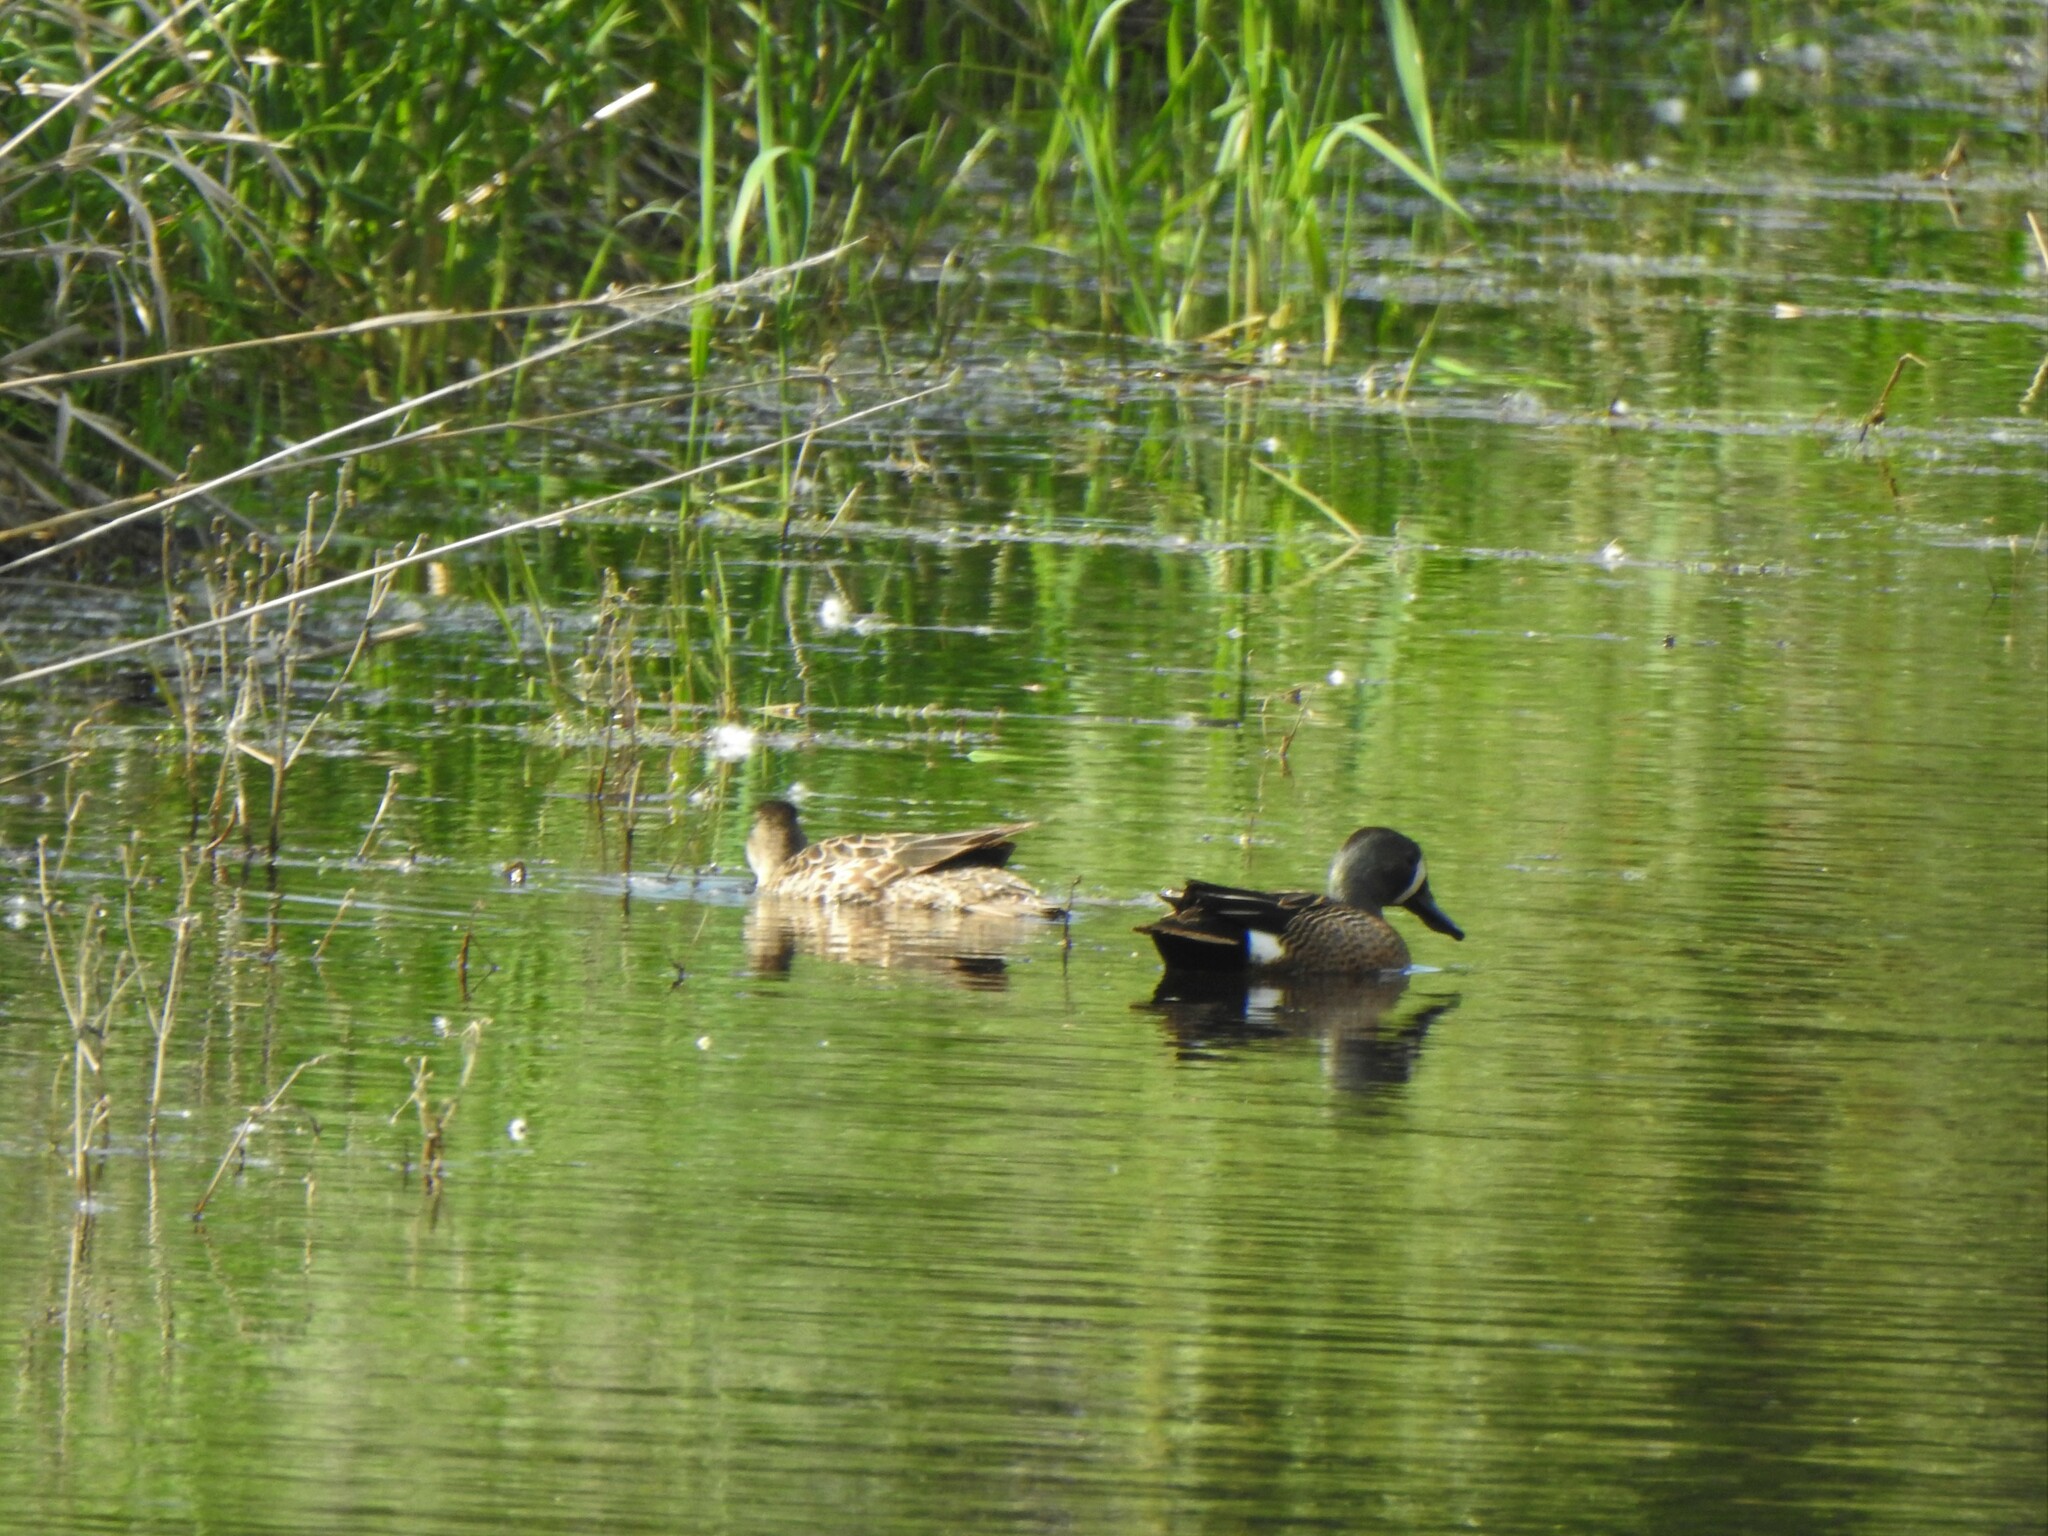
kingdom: Animalia
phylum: Chordata
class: Aves
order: Anseriformes
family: Anatidae
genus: Spatula
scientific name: Spatula discors
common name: Blue-winged teal
